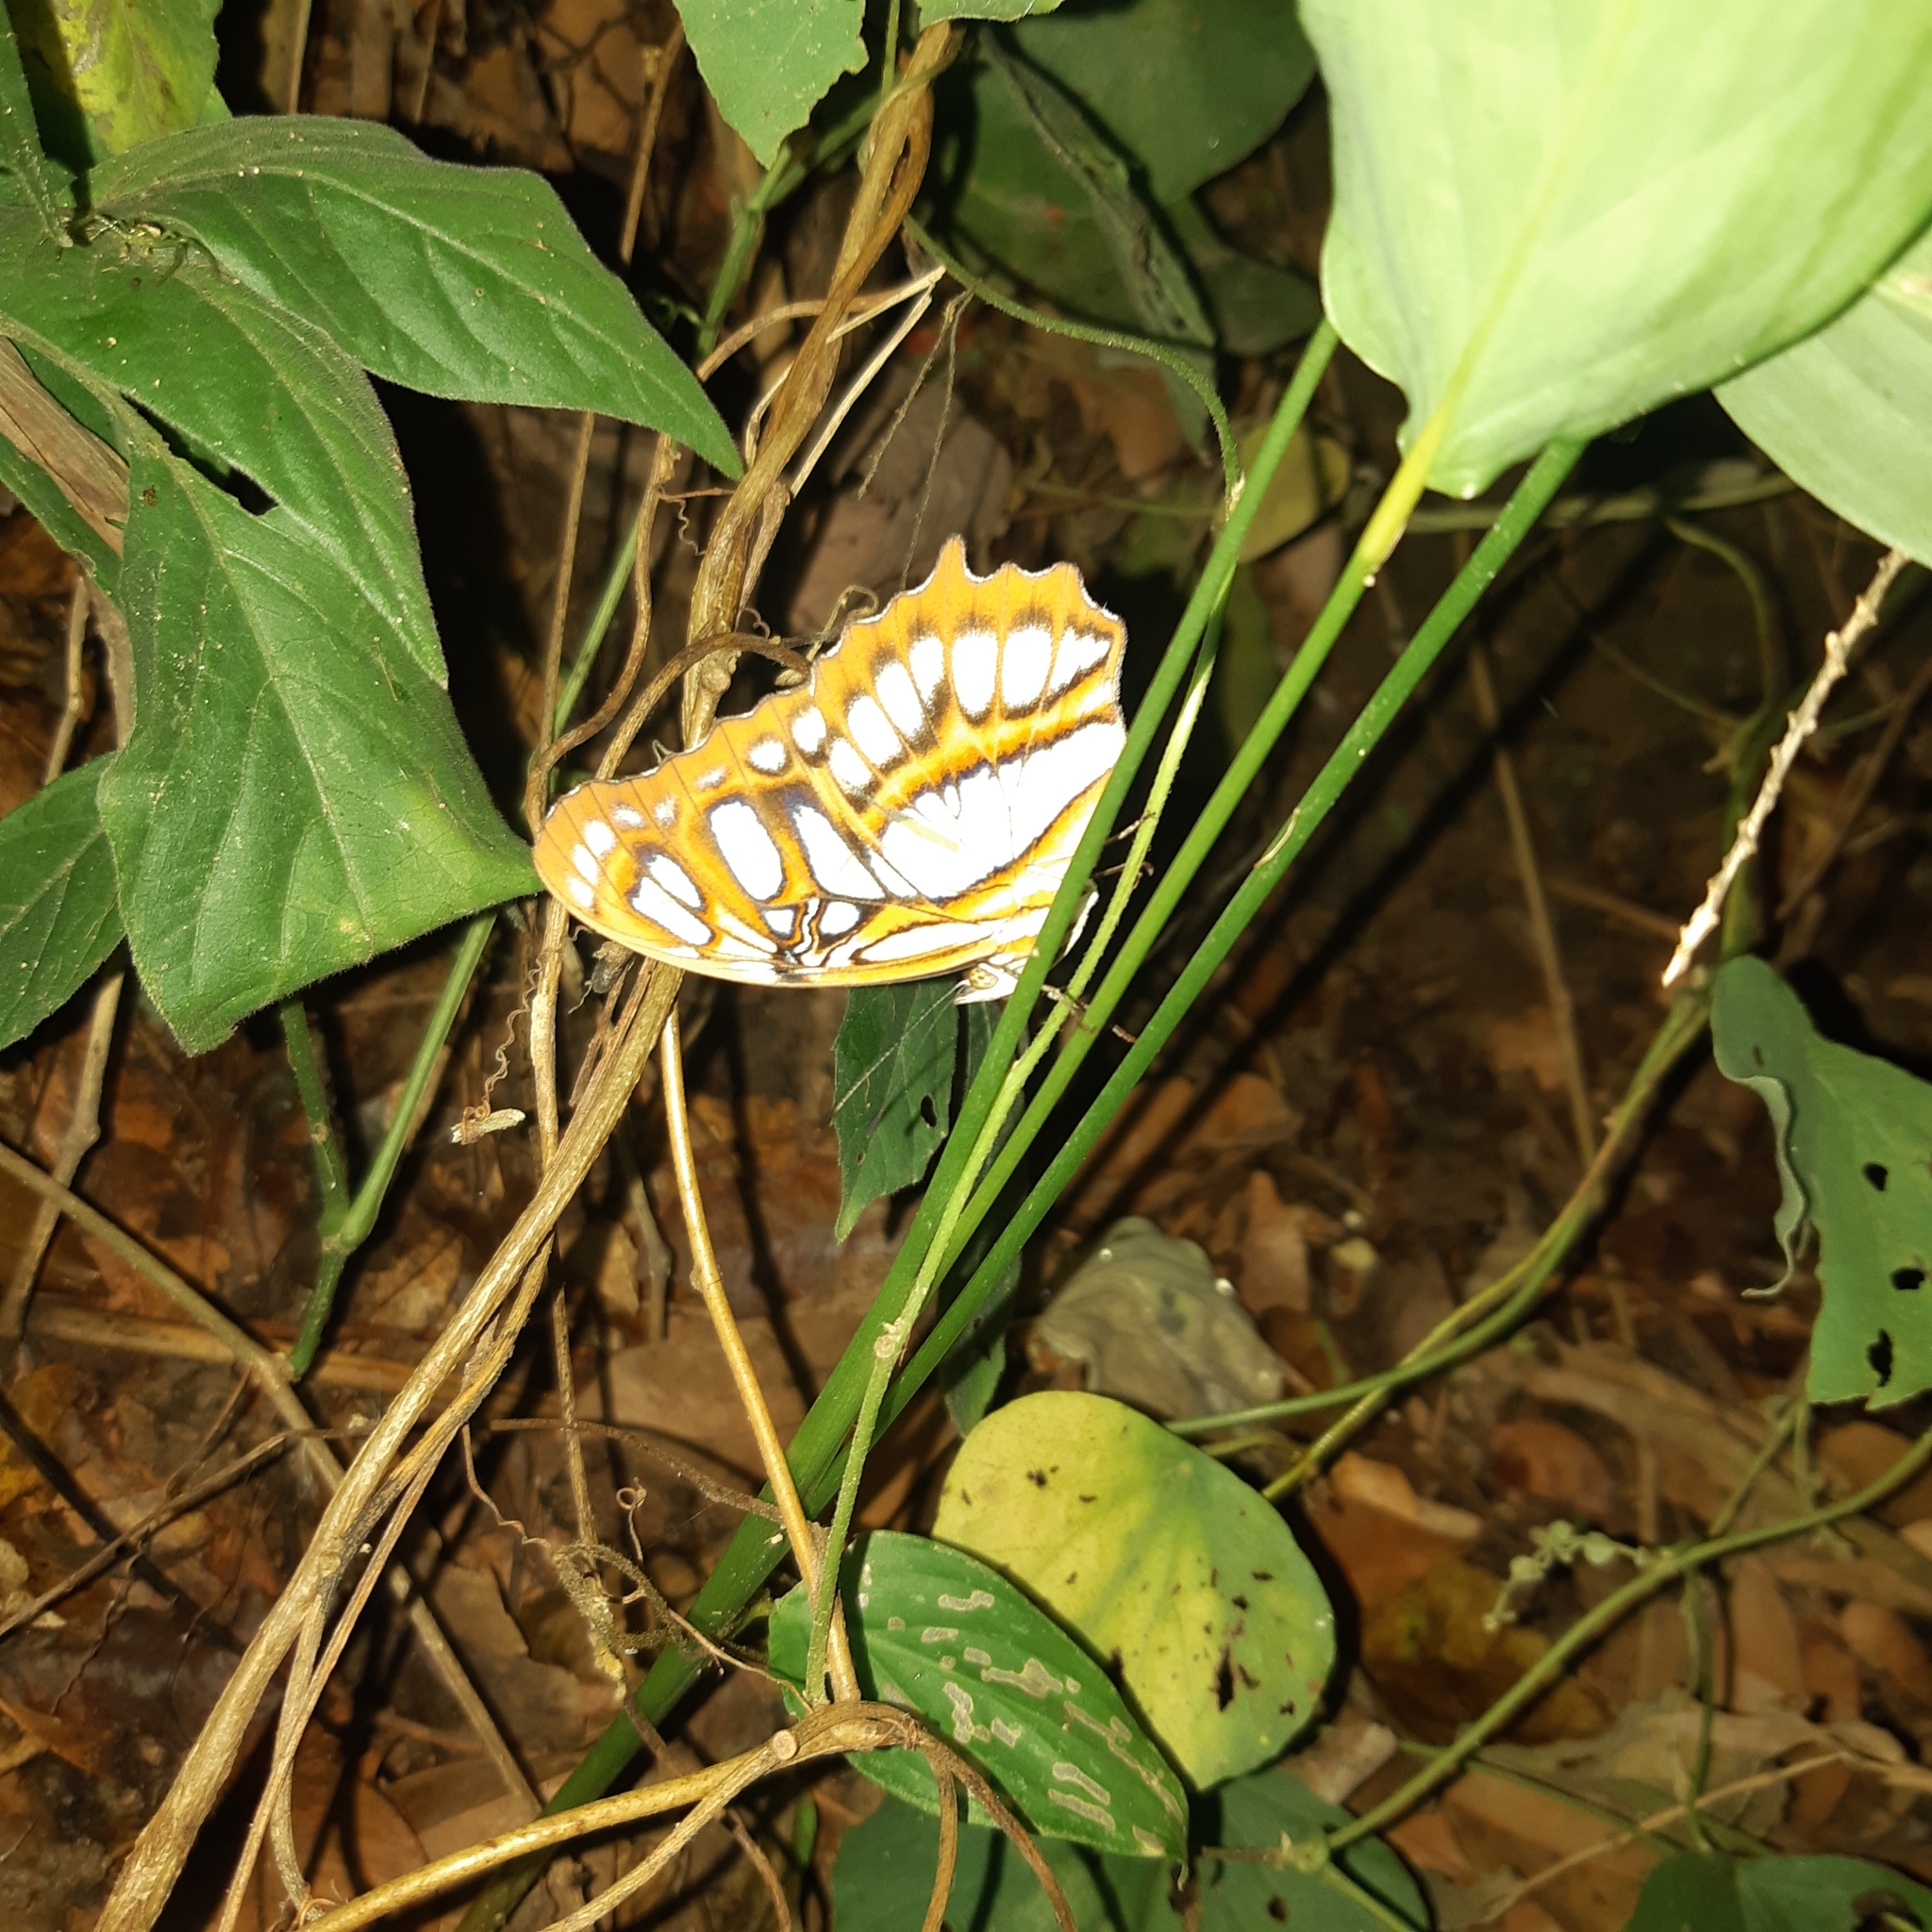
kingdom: Animalia
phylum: Arthropoda
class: Insecta
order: Lepidoptera
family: Nymphalidae
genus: Siproeta
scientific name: Siproeta stelenes
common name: Malachite
